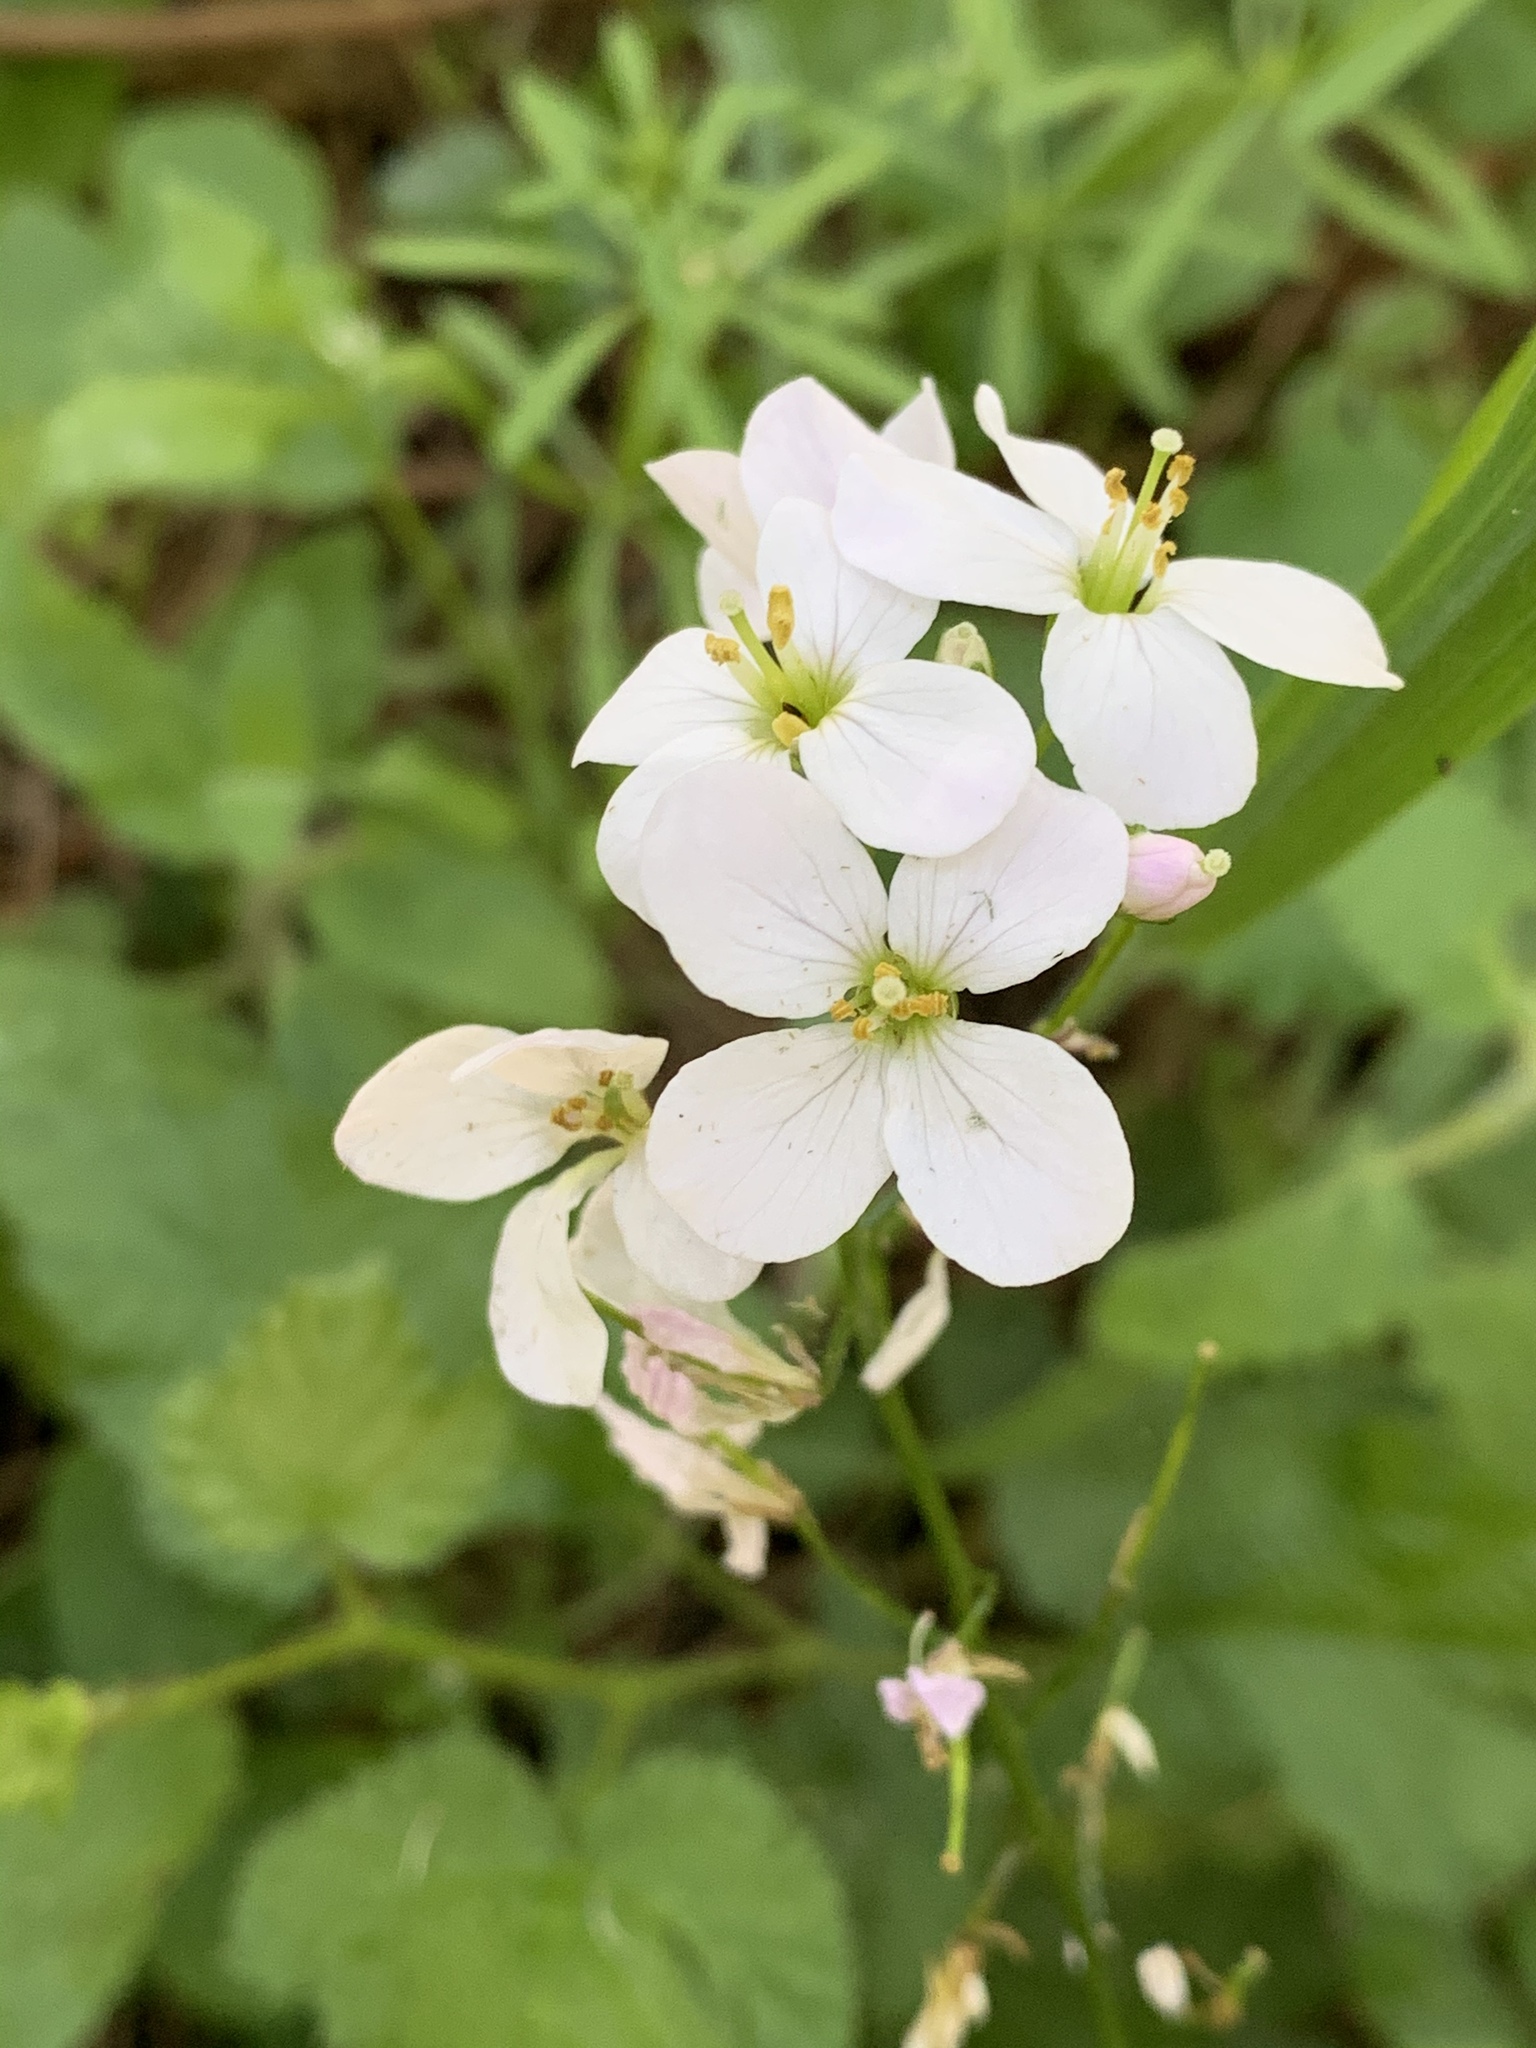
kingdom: Plantae
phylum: Tracheophyta
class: Magnoliopsida
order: Brassicales
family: Brassicaceae
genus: Cardamine
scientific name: Cardamine californica
